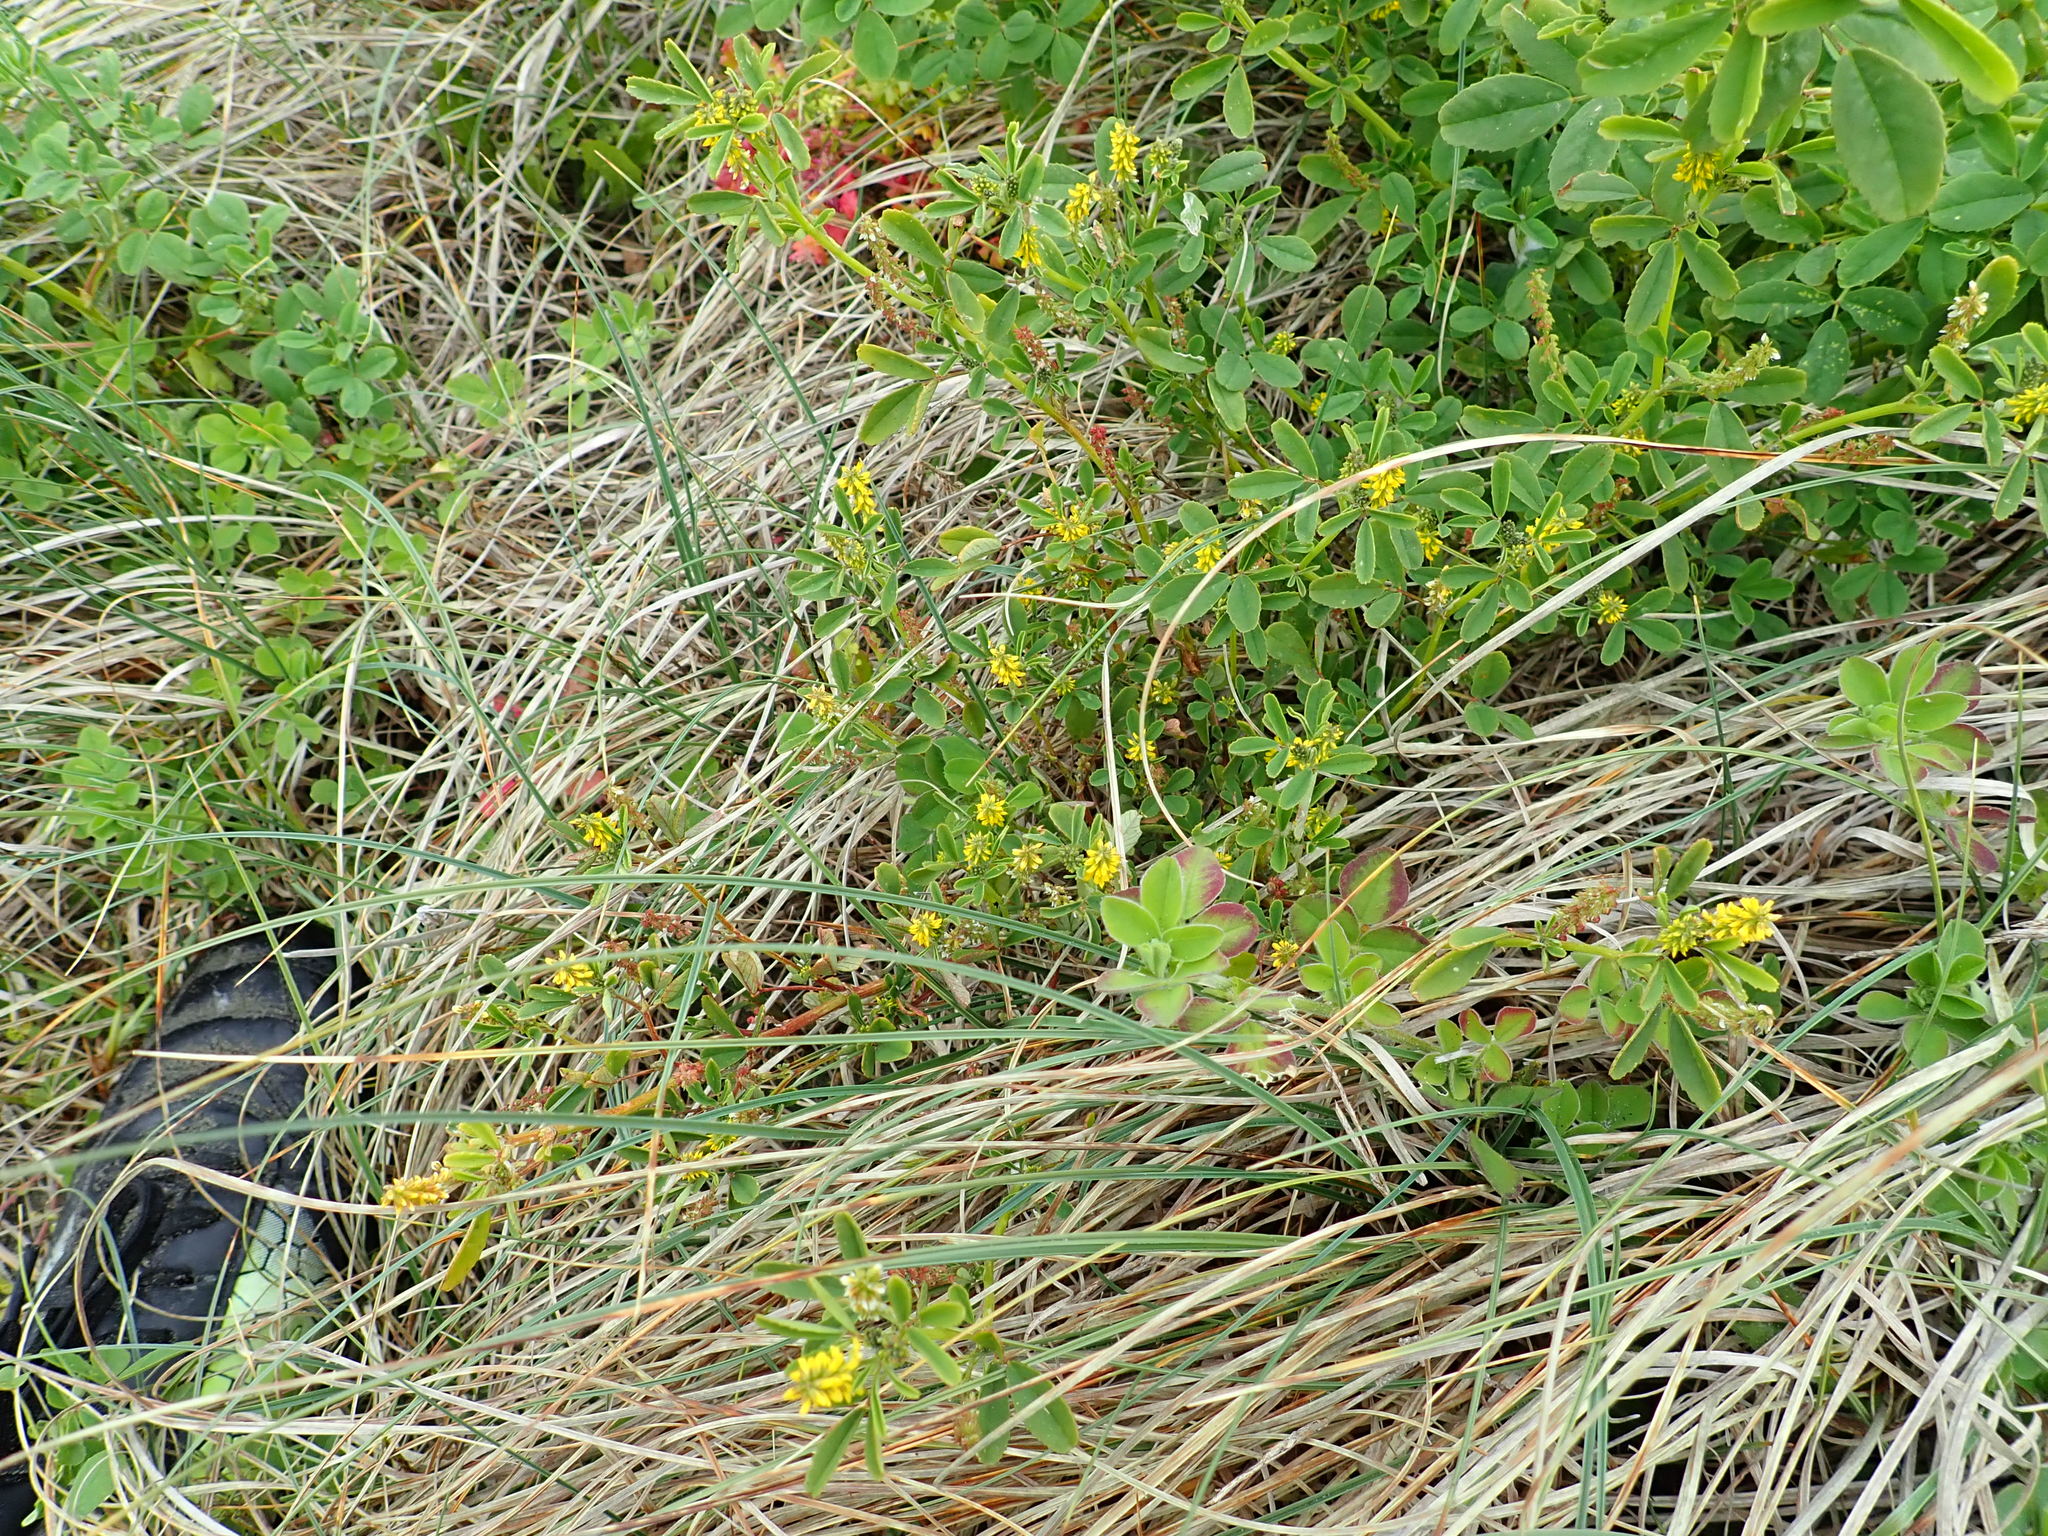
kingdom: Plantae
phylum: Tracheophyta
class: Magnoliopsida
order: Fabales
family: Fabaceae
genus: Melilotus
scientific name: Melilotus indicus
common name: Small melilot
